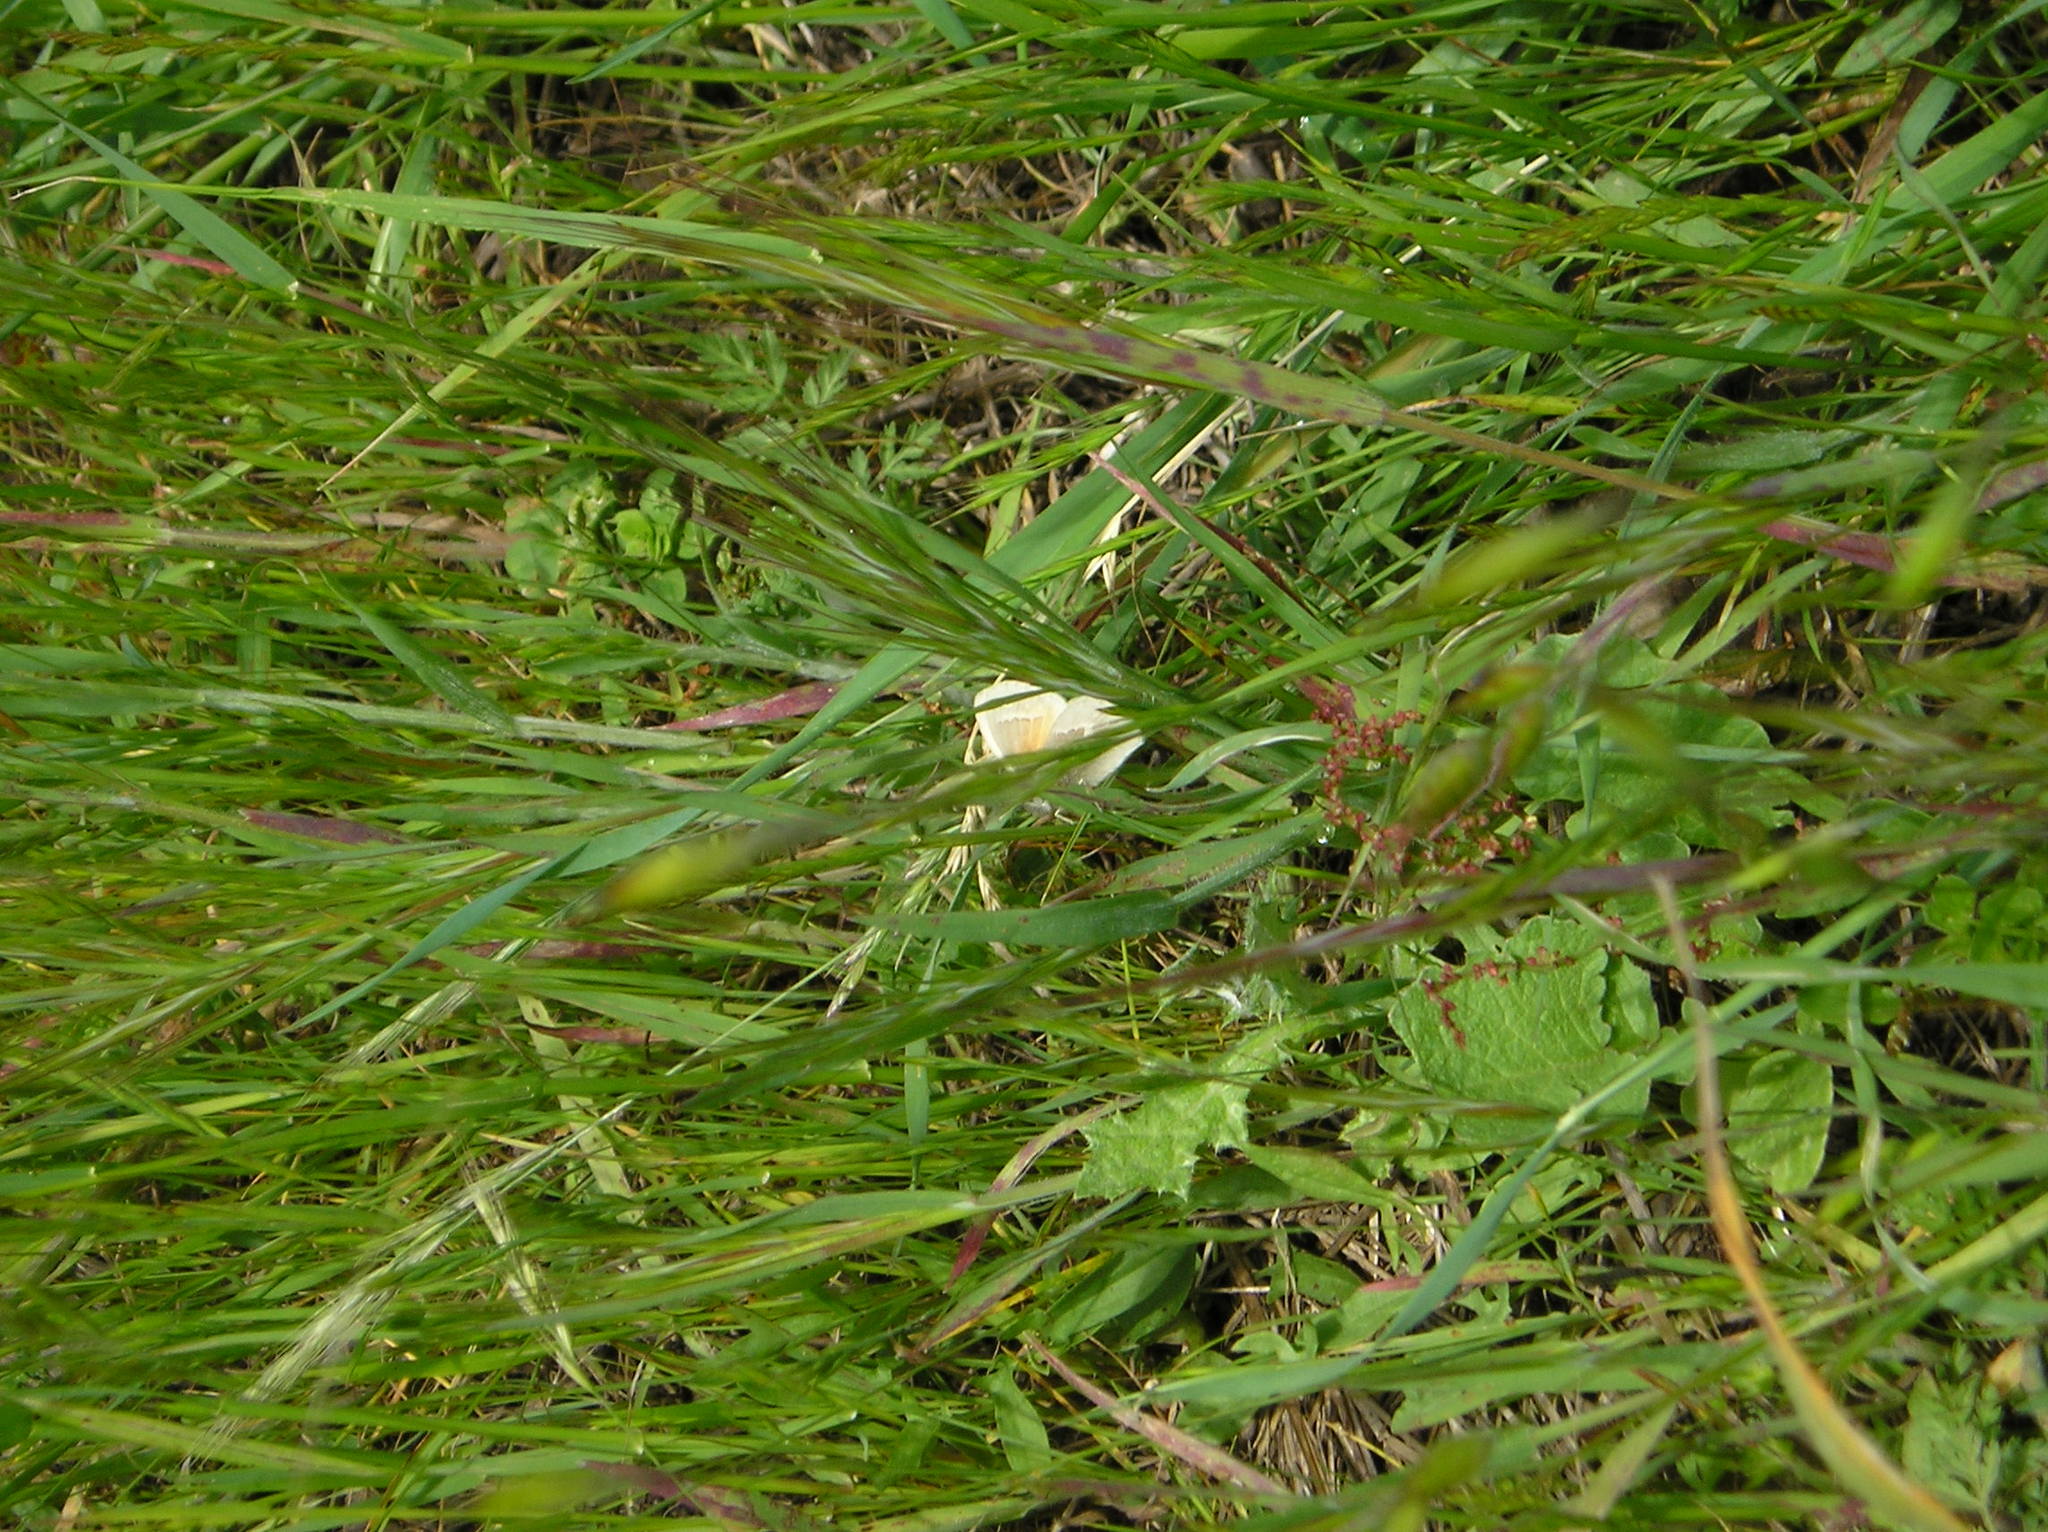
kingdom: Animalia
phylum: Arthropoda
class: Insecta
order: Lepidoptera
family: Nymphalidae
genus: Coenonympha
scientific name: Coenonympha california
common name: Common ringlet
